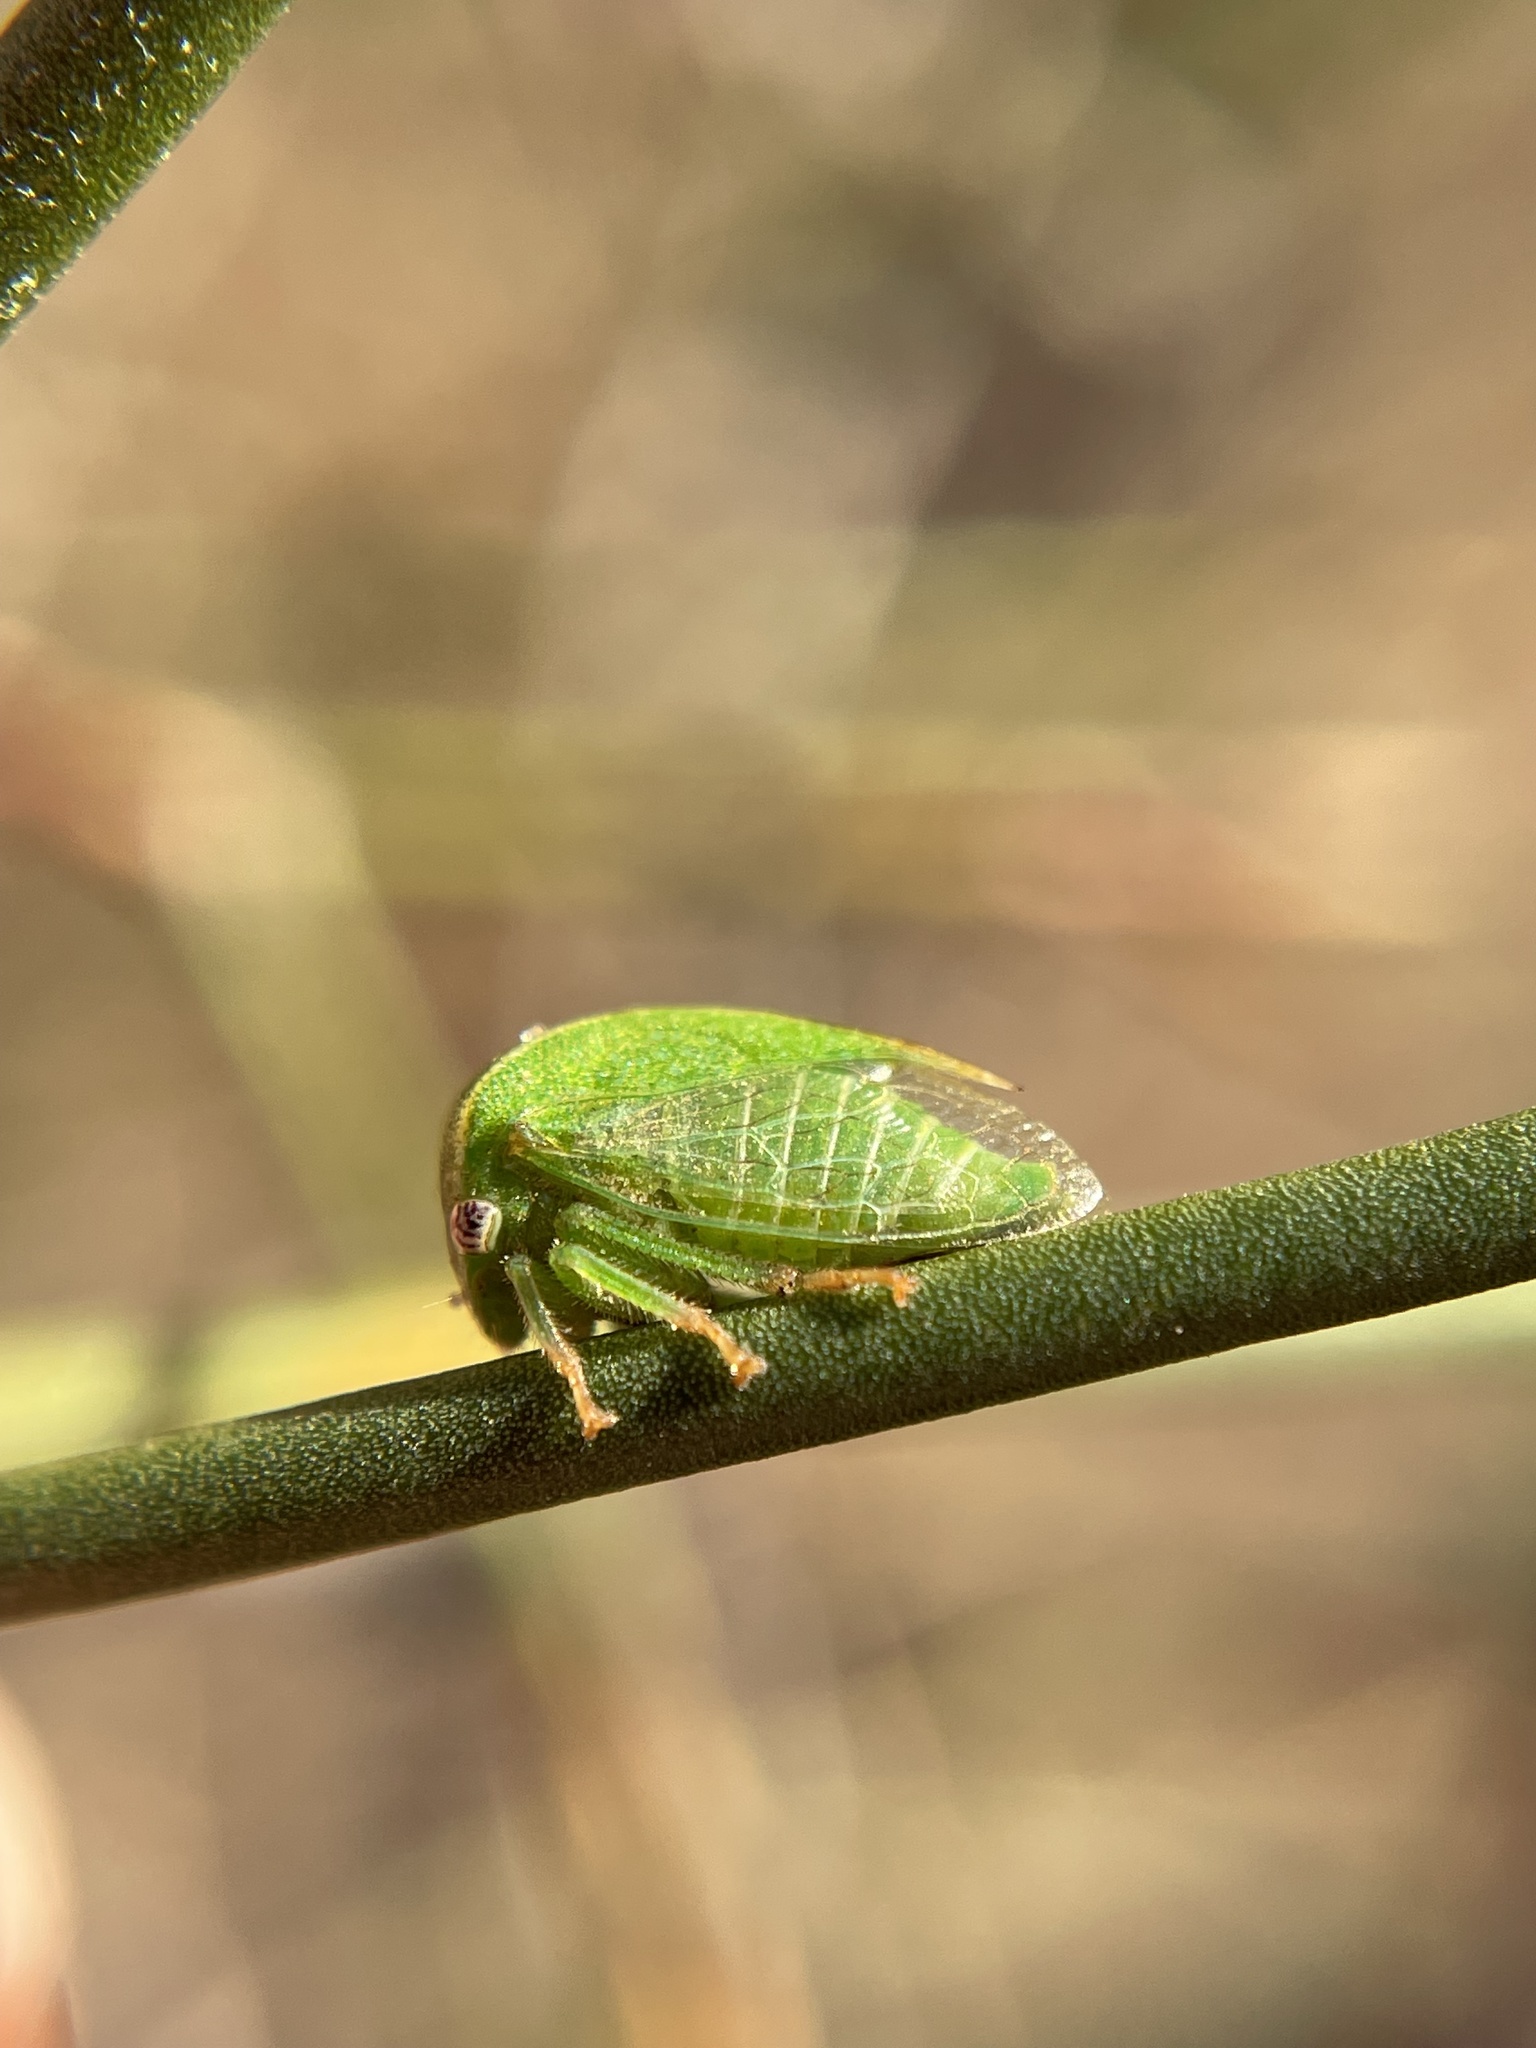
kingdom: Animalia
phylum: Arthropoda
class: Insecta
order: Hemiptera
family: Membracidae
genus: Spissistilus
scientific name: Spissistilus festina
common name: Membracid bug
